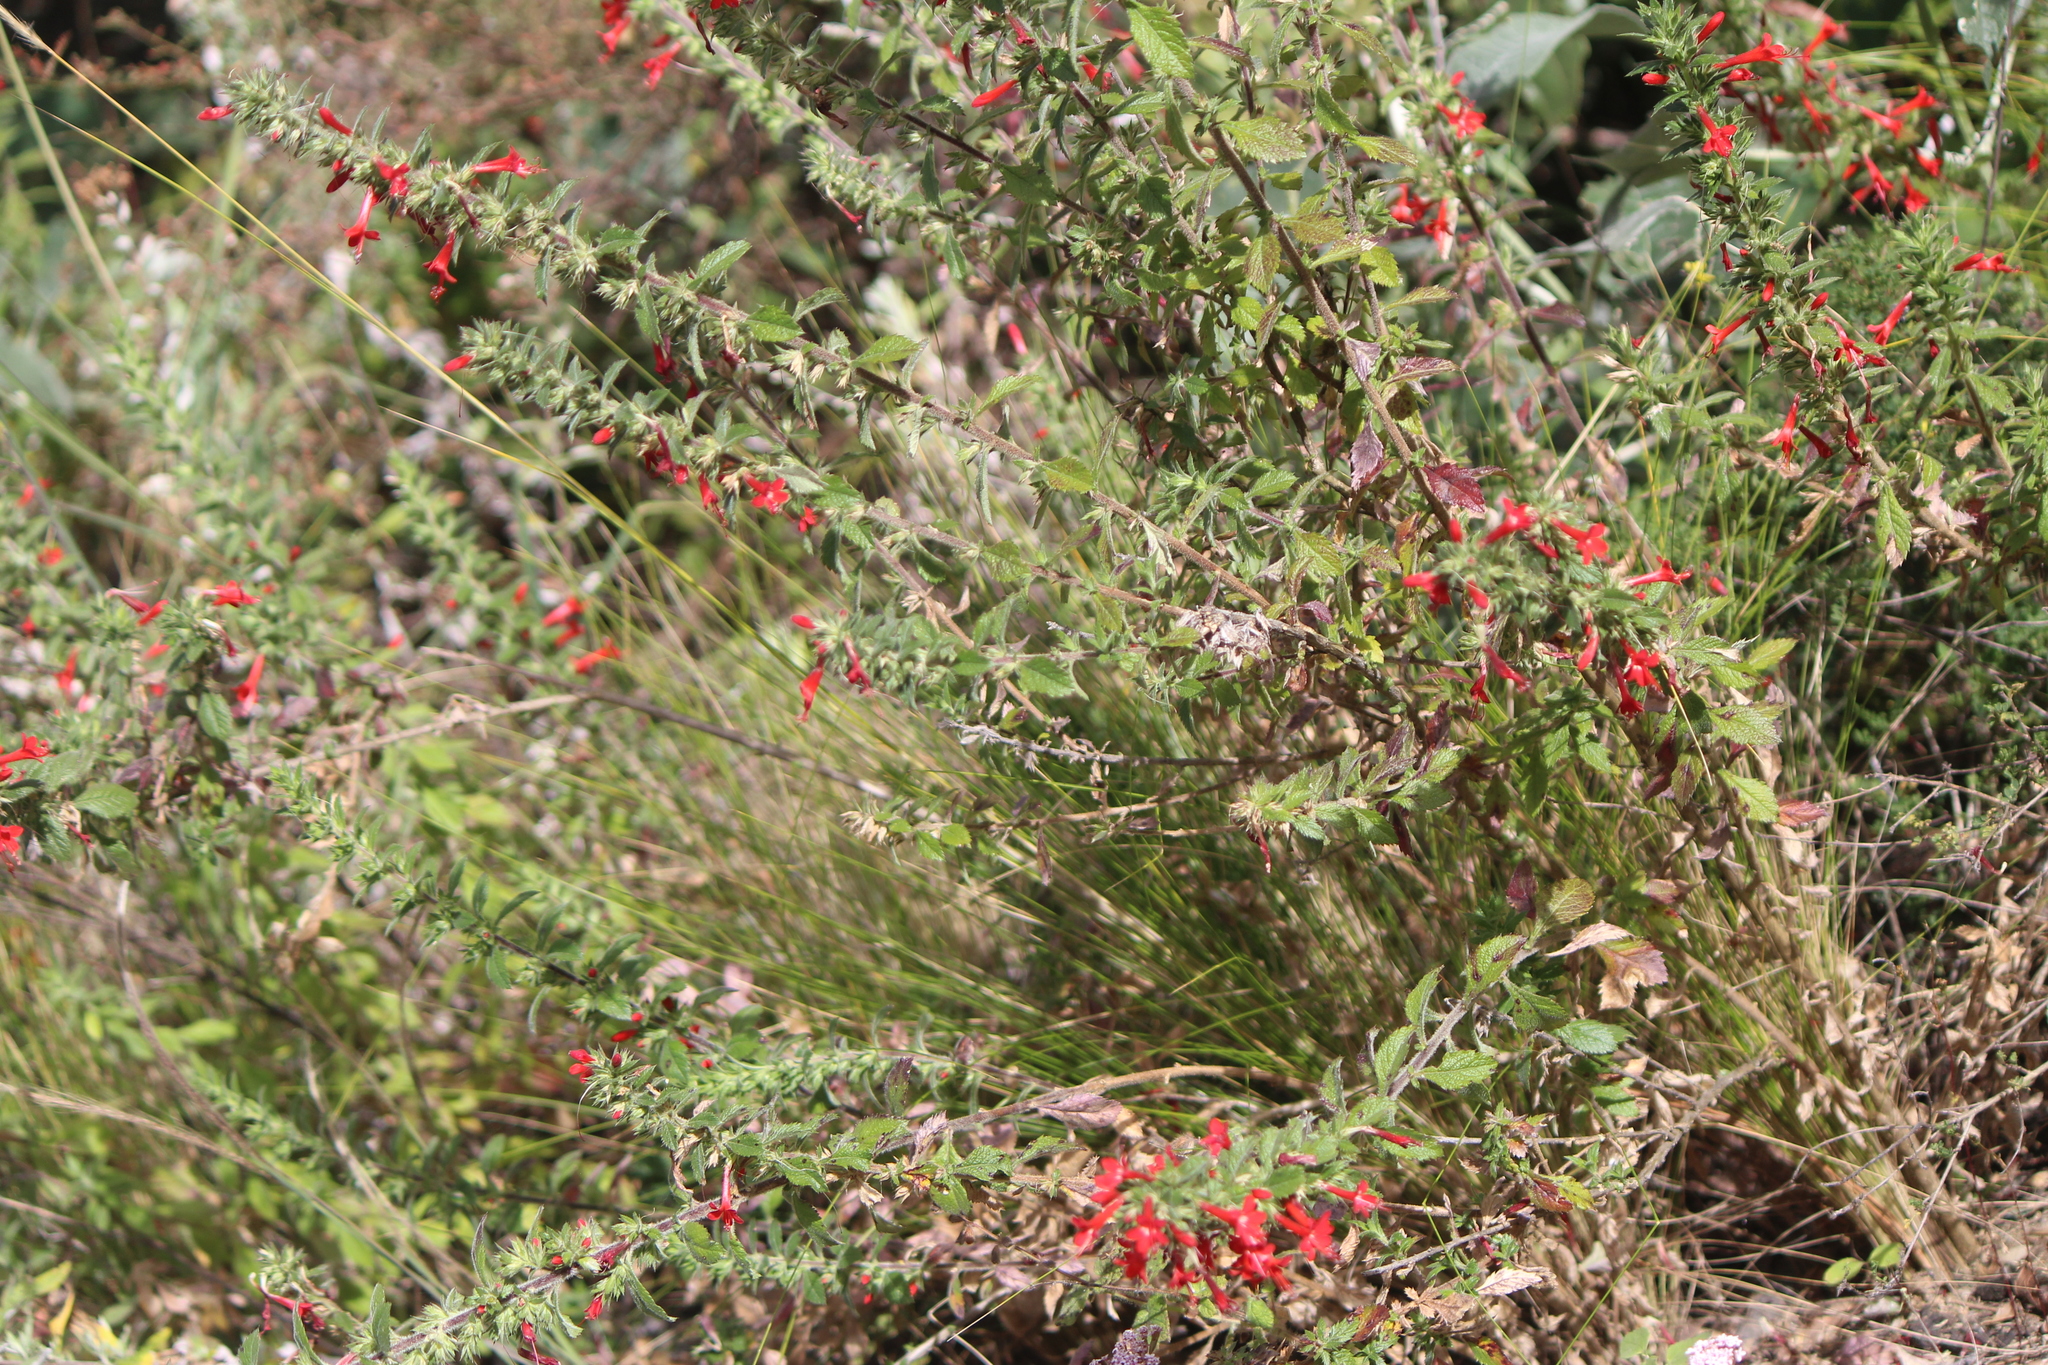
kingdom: Plantae
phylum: Tracheophyta
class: Magnoliopsida
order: Ericales
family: Polemoniaceae
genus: Loeselia
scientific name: Loeselia mexicana
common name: Mexican false calico
